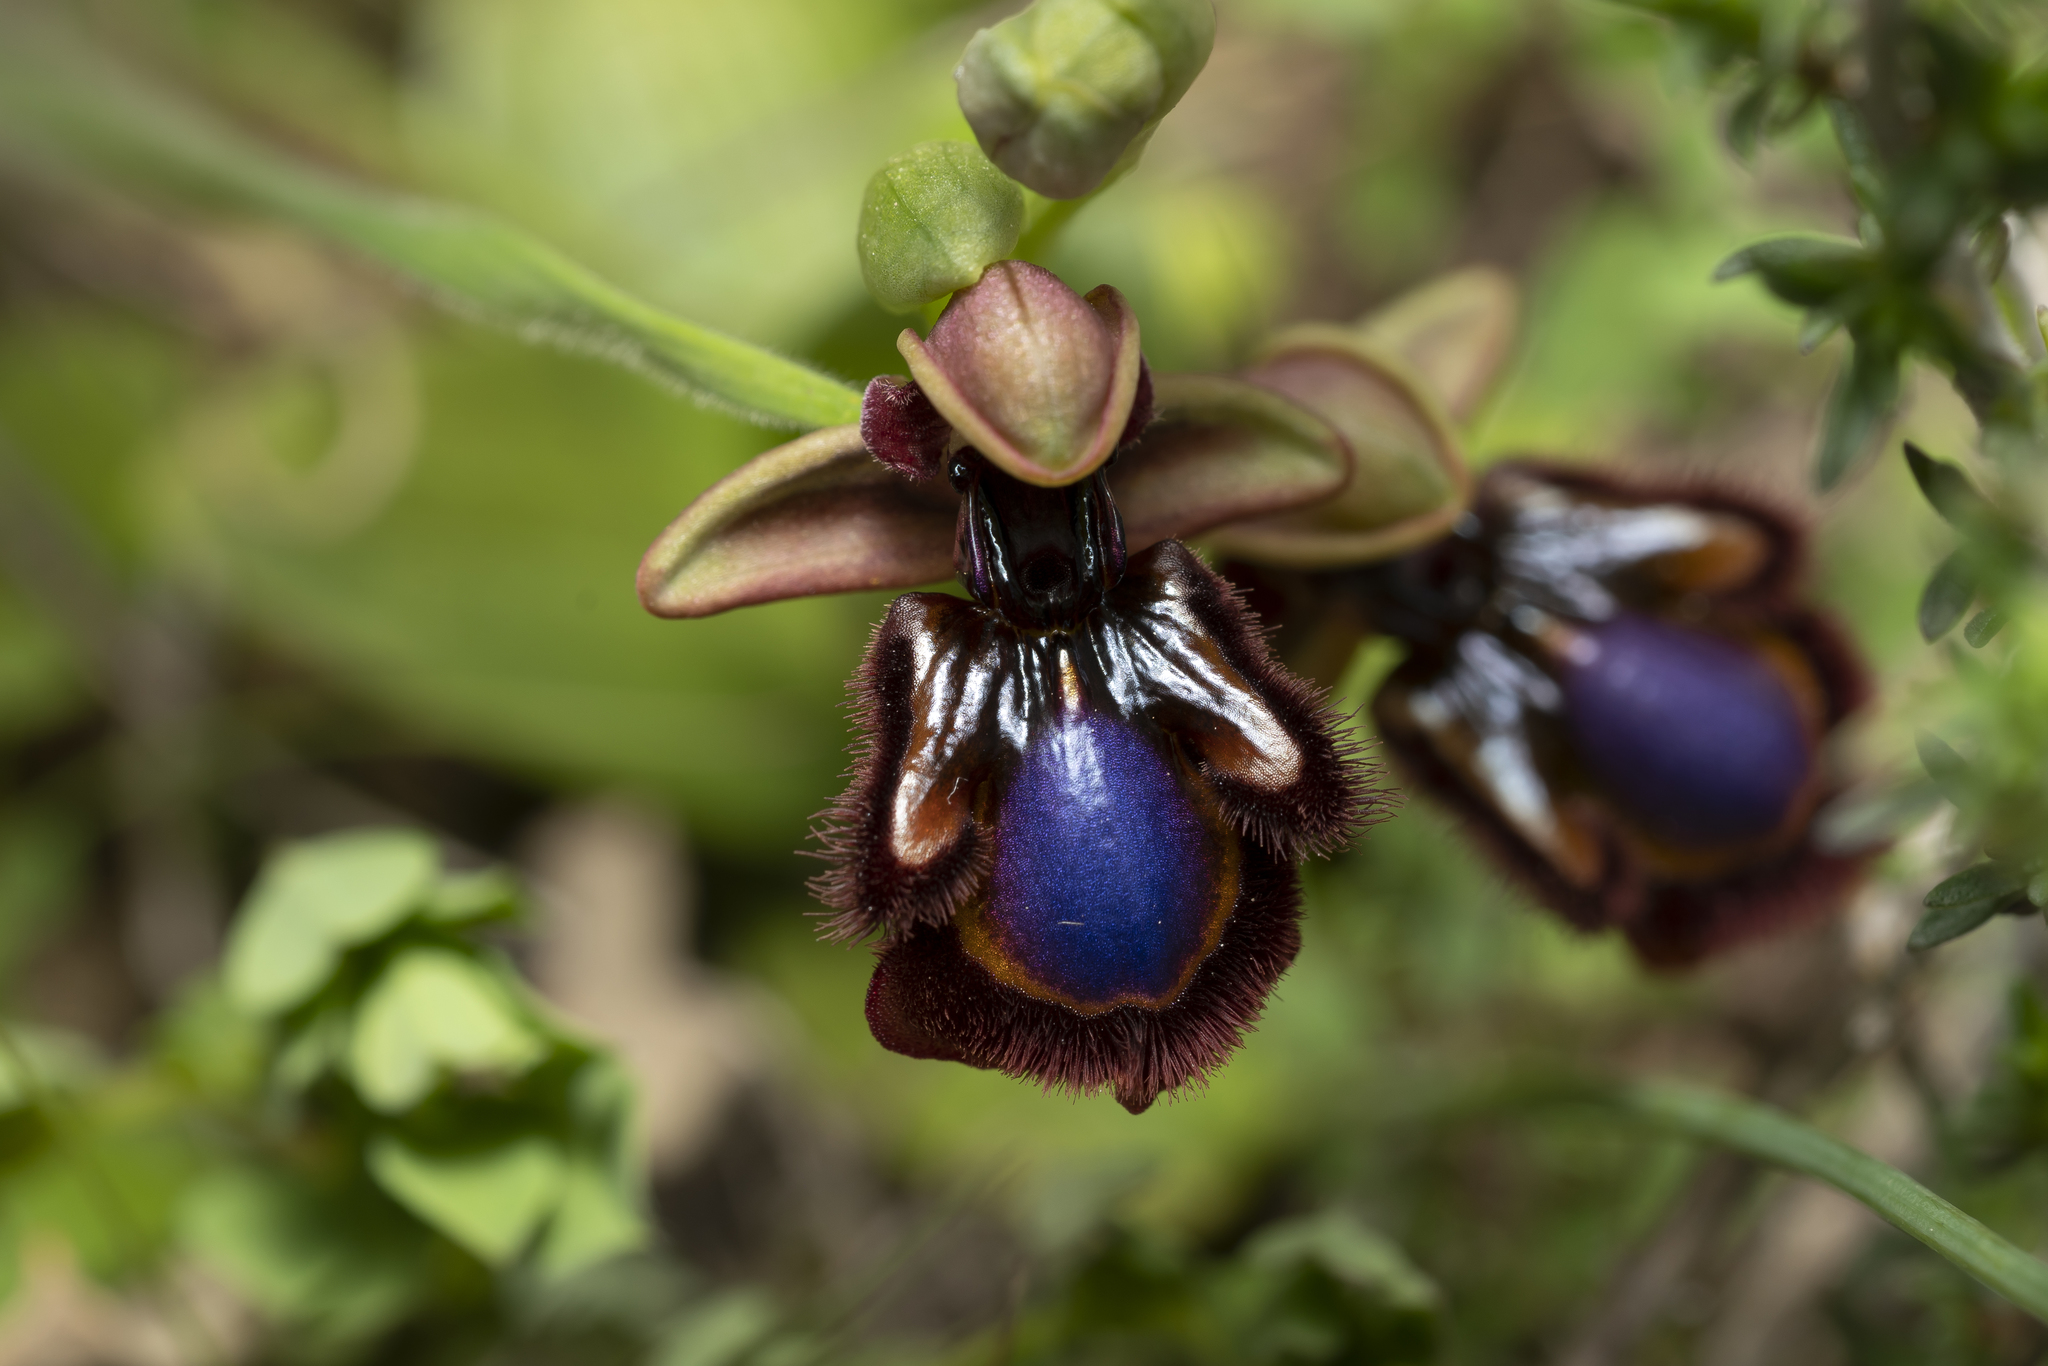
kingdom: Plantae
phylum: Tracheophyta
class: Liliopsida
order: Asparagales
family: Orchidaceae
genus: Ophrys
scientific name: Ophrys speculum
